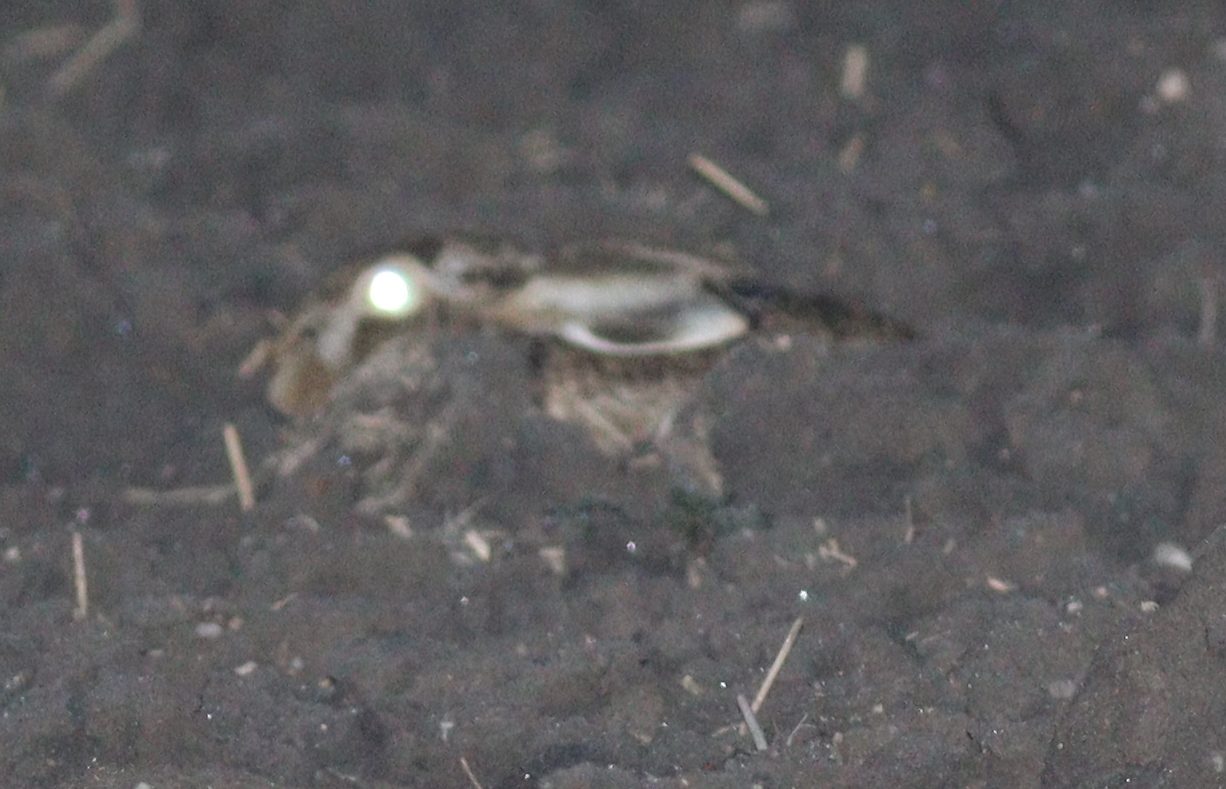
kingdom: Animalia
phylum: Chordata
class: Mammalia
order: Lagomorpha
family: Leporidae
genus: Lepus
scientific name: Lepus europaeus
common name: European hare
